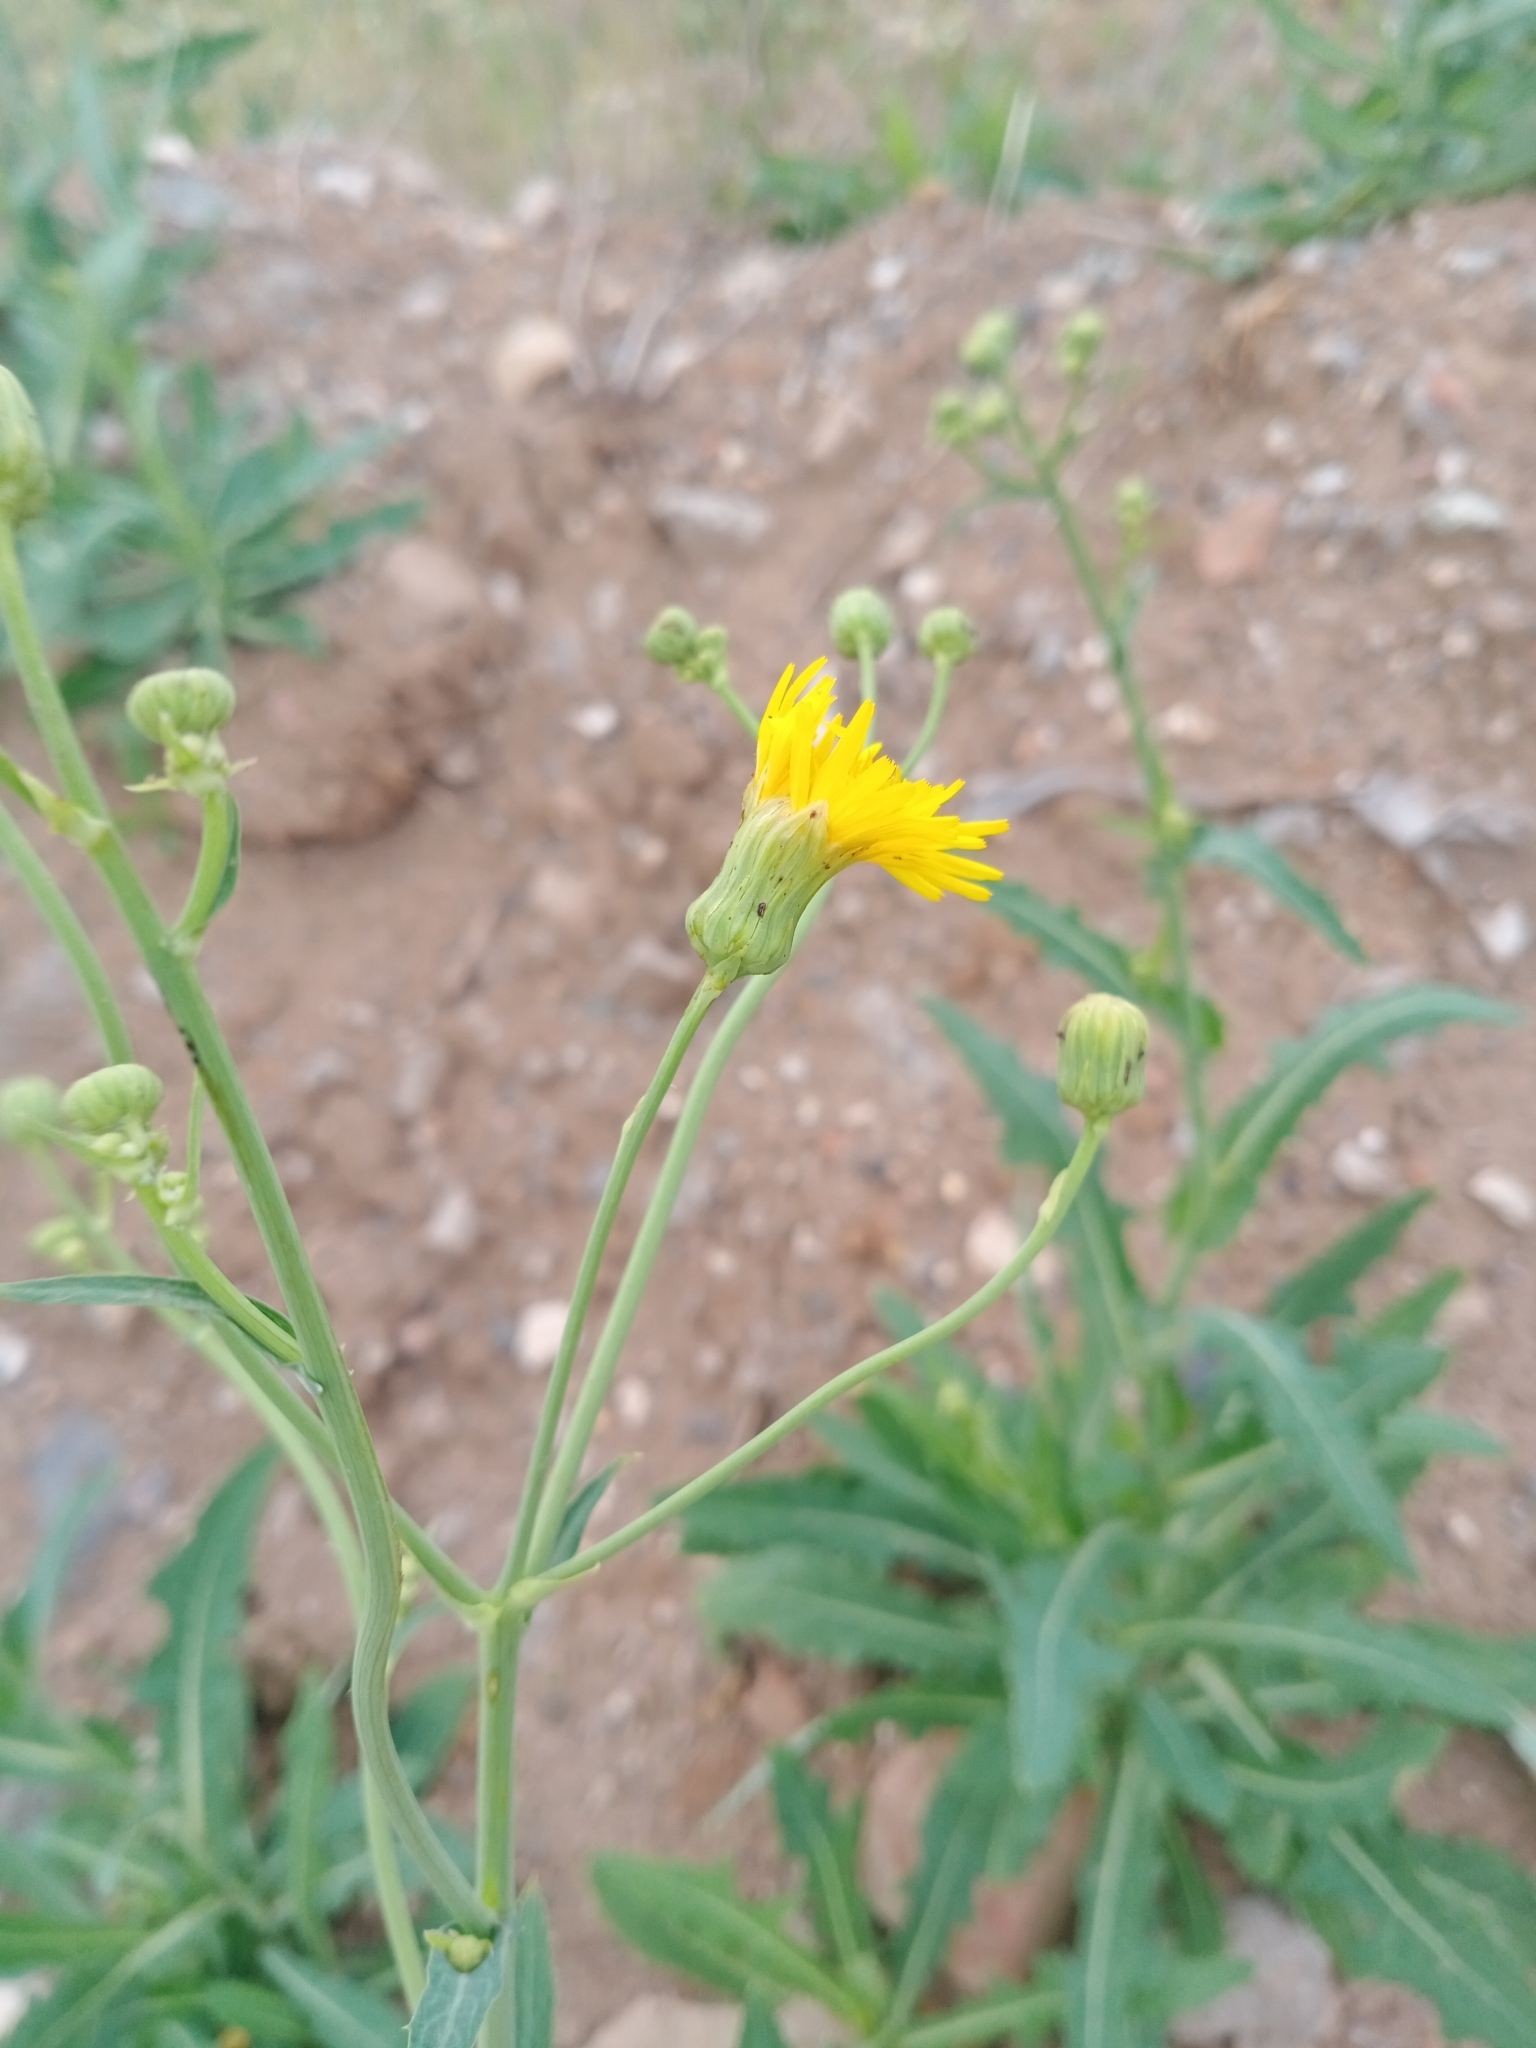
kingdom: Plantae
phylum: Tracheophyta
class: Magnoliopsida
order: Asterales
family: Asteraceae
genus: Sonchus
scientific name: Sonchus arvensis
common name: Perennial sow-thistle
